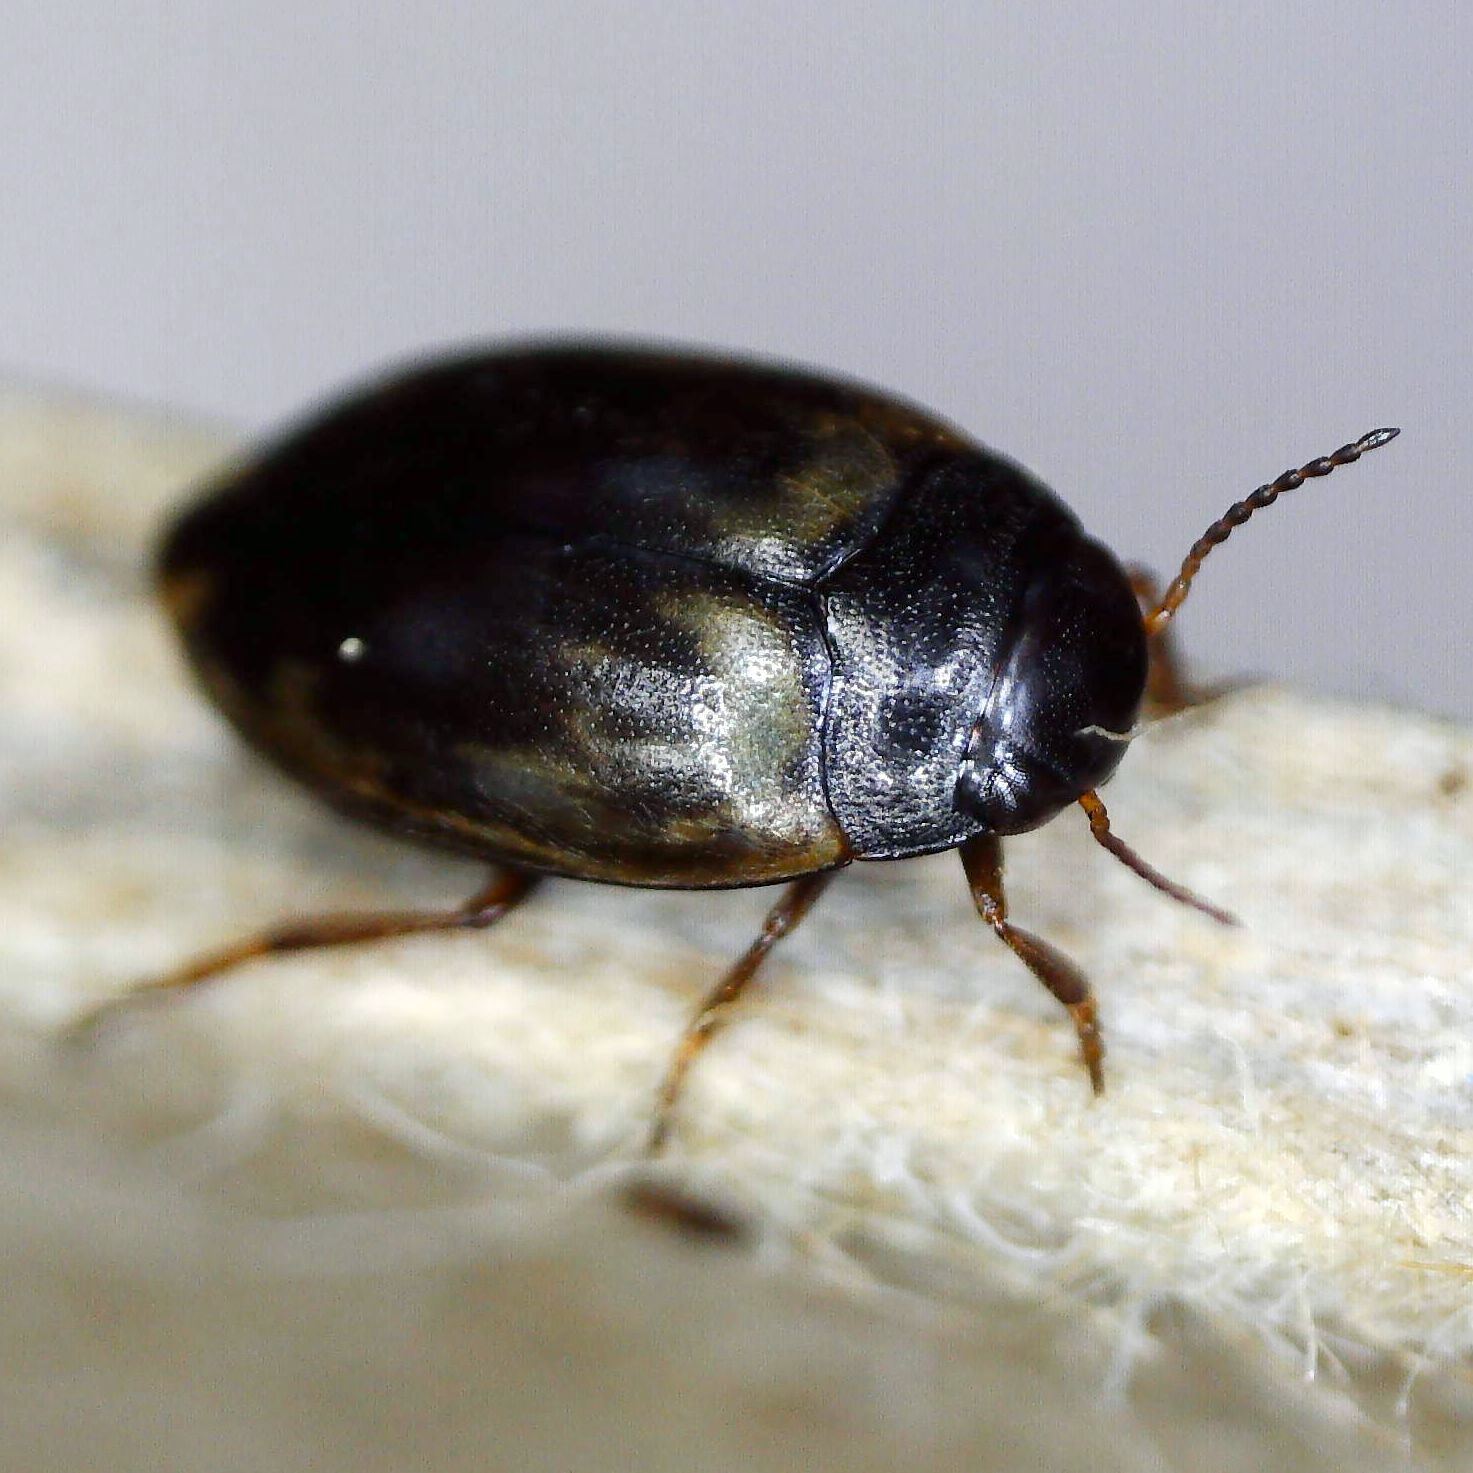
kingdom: Animalia
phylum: Arthropoda
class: Insecta
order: Coleoptera
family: Dytiscidae
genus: Hydroporus
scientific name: Hydroporus tessellatus
